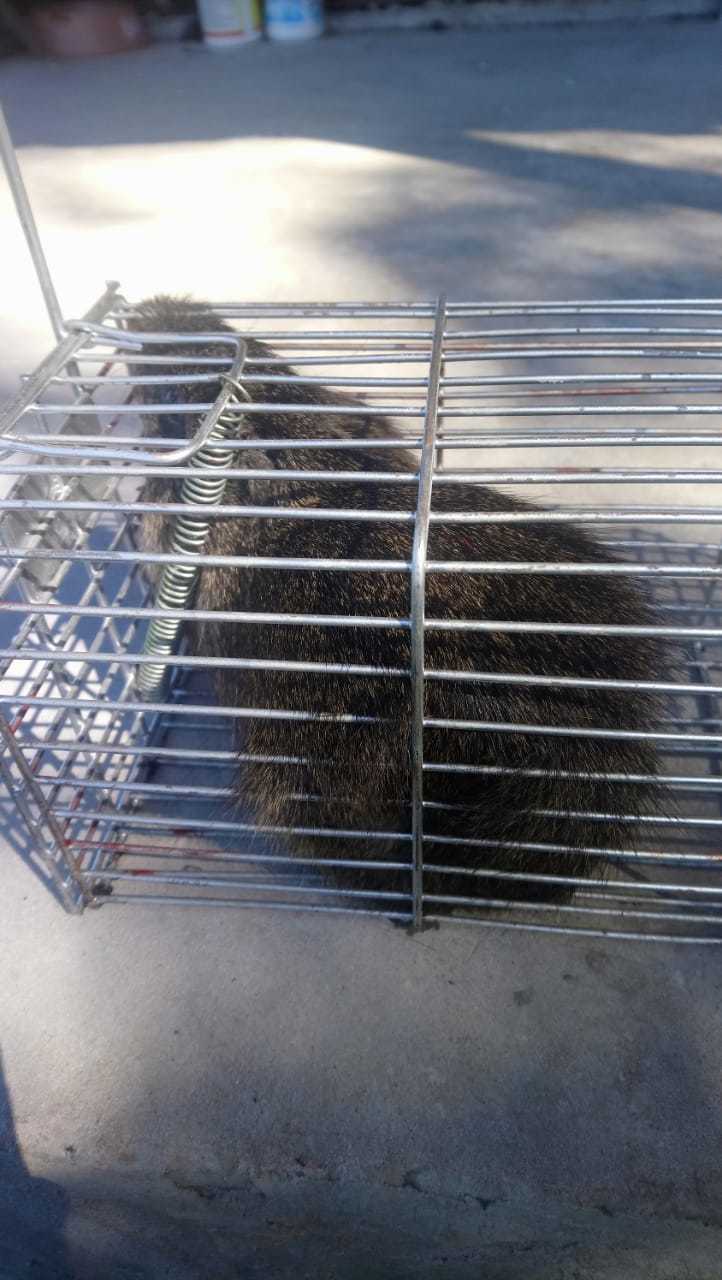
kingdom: Animalia
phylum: Chordata
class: Mammalia
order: Rodentia
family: Caviidae
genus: Cavia
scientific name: Cavia aperea
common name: Brazilian guinea pig
